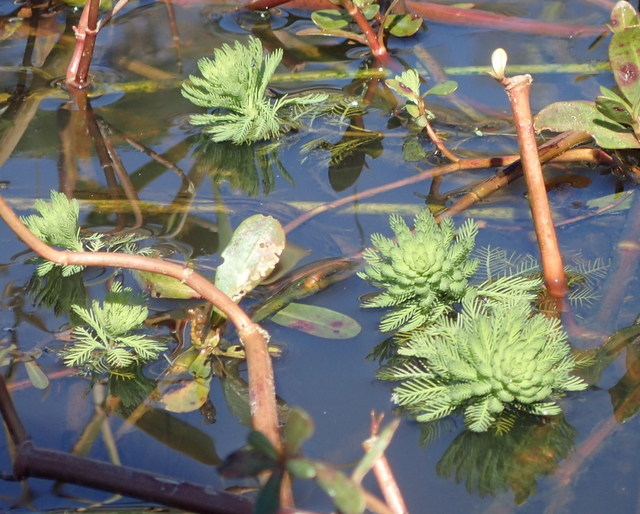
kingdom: Plantae
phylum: Tracheophyta
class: Magnoliopsida
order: Saxifragales
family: Haloragaceae
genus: Myriophyllum
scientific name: Myriophyllum aquaticum
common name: Parrot's feather
